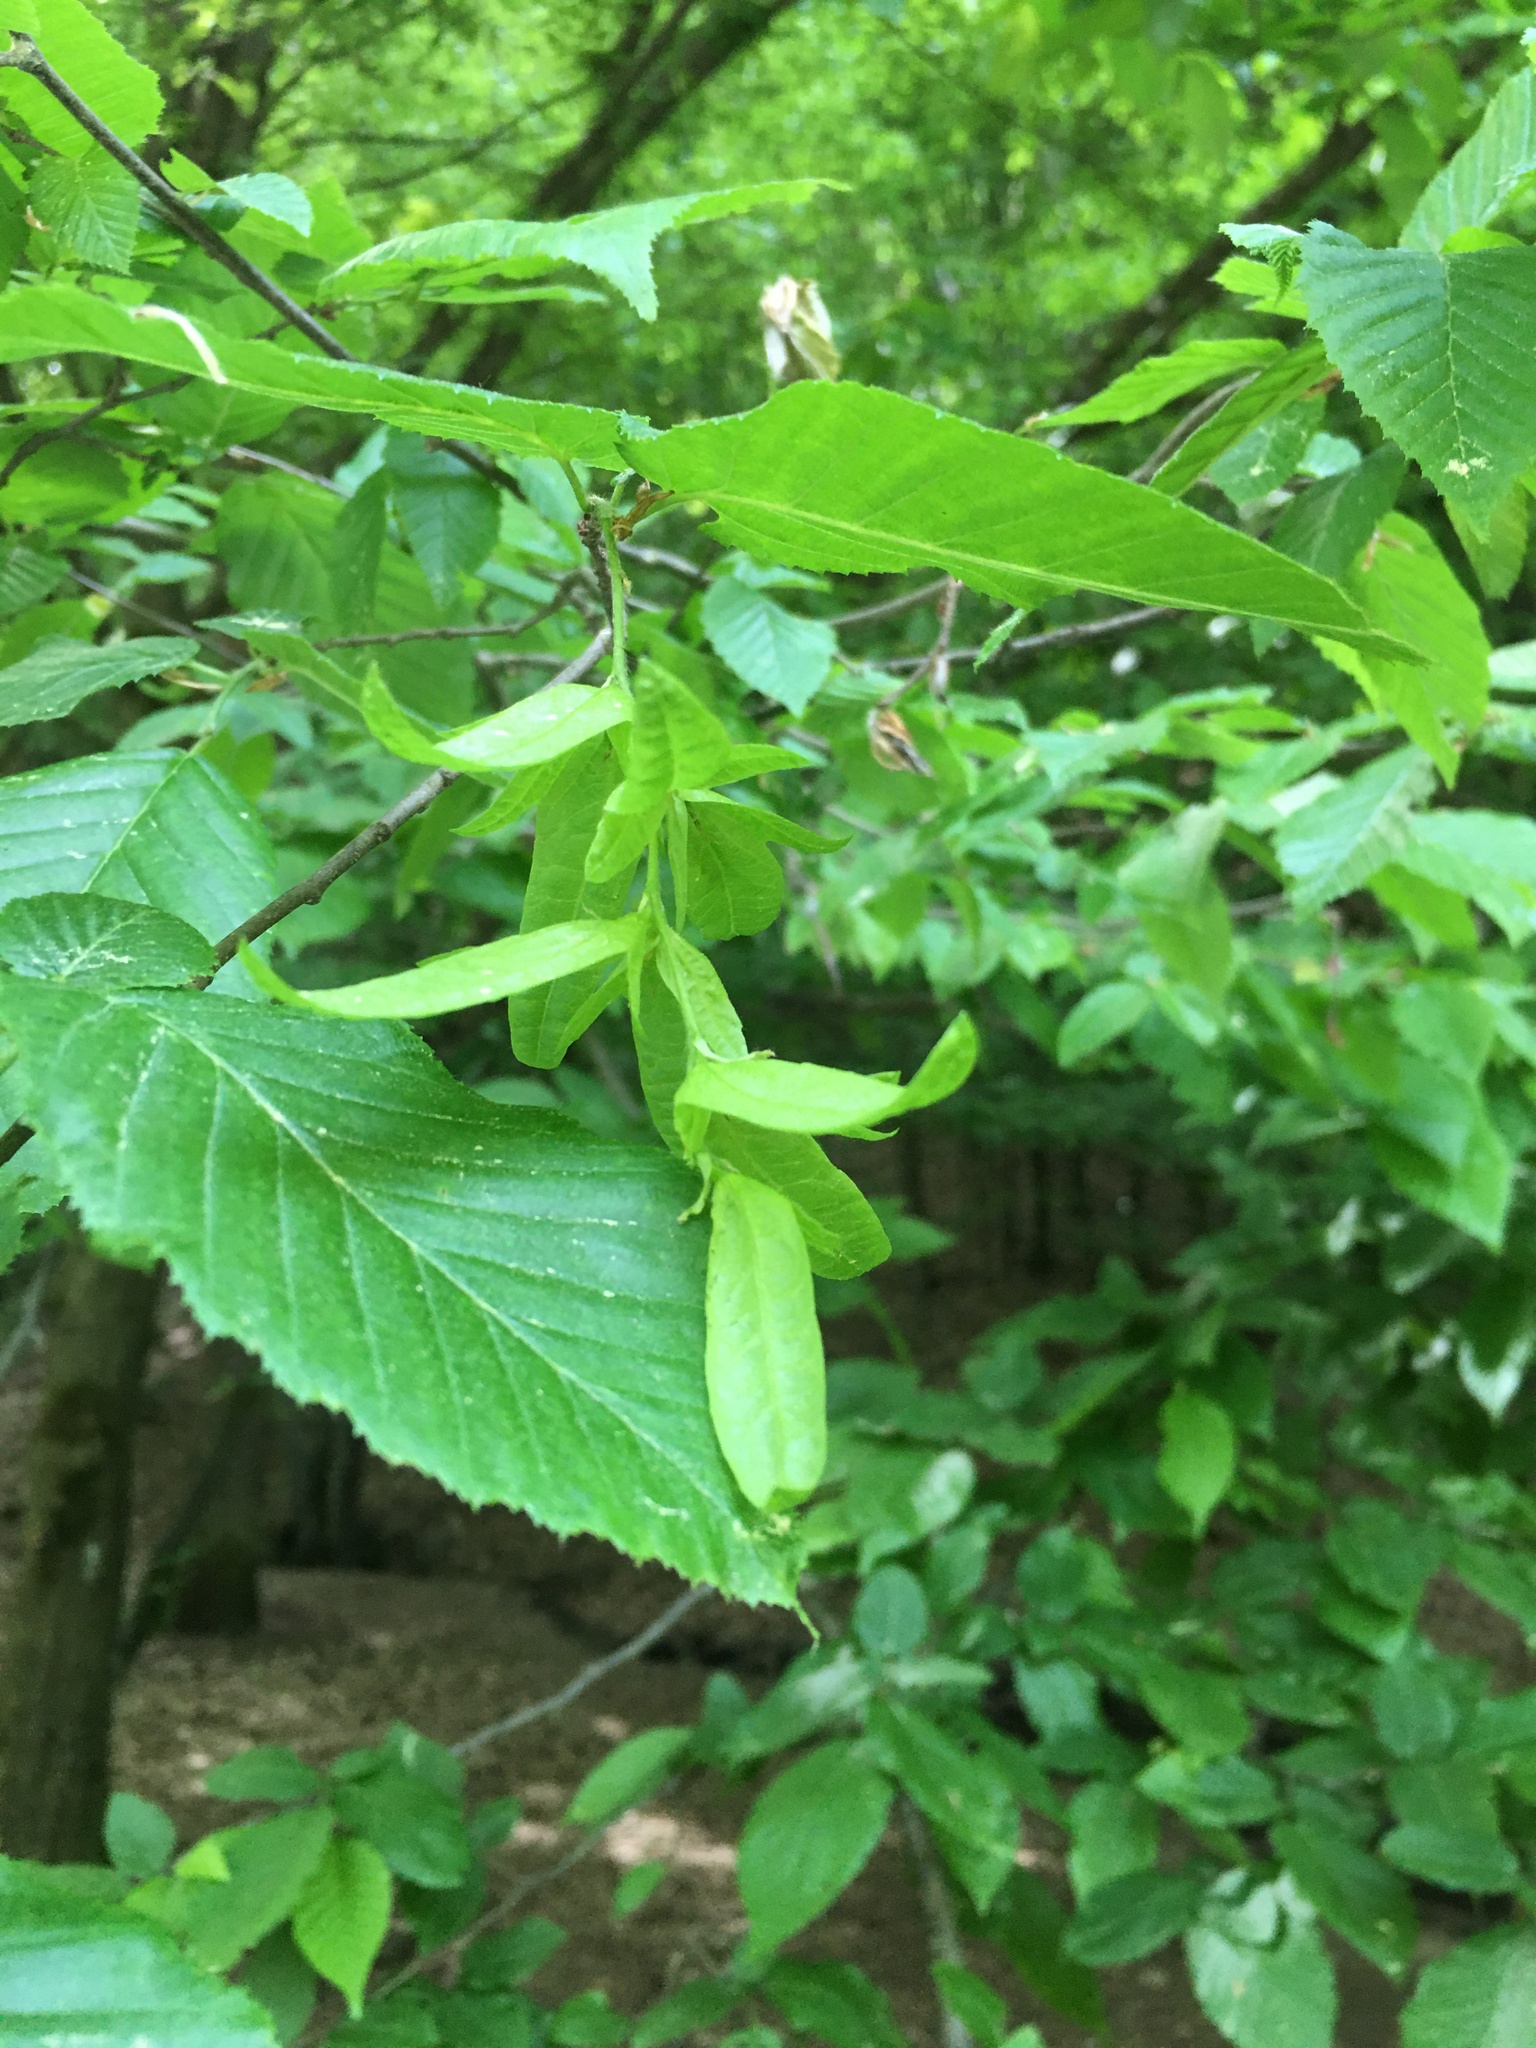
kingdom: Plantae
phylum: Tracheophyta
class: Magnoliopsida
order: Fagales
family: Betulaceae
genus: Carpinus
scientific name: Carpinus betulus
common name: Hornbeam
